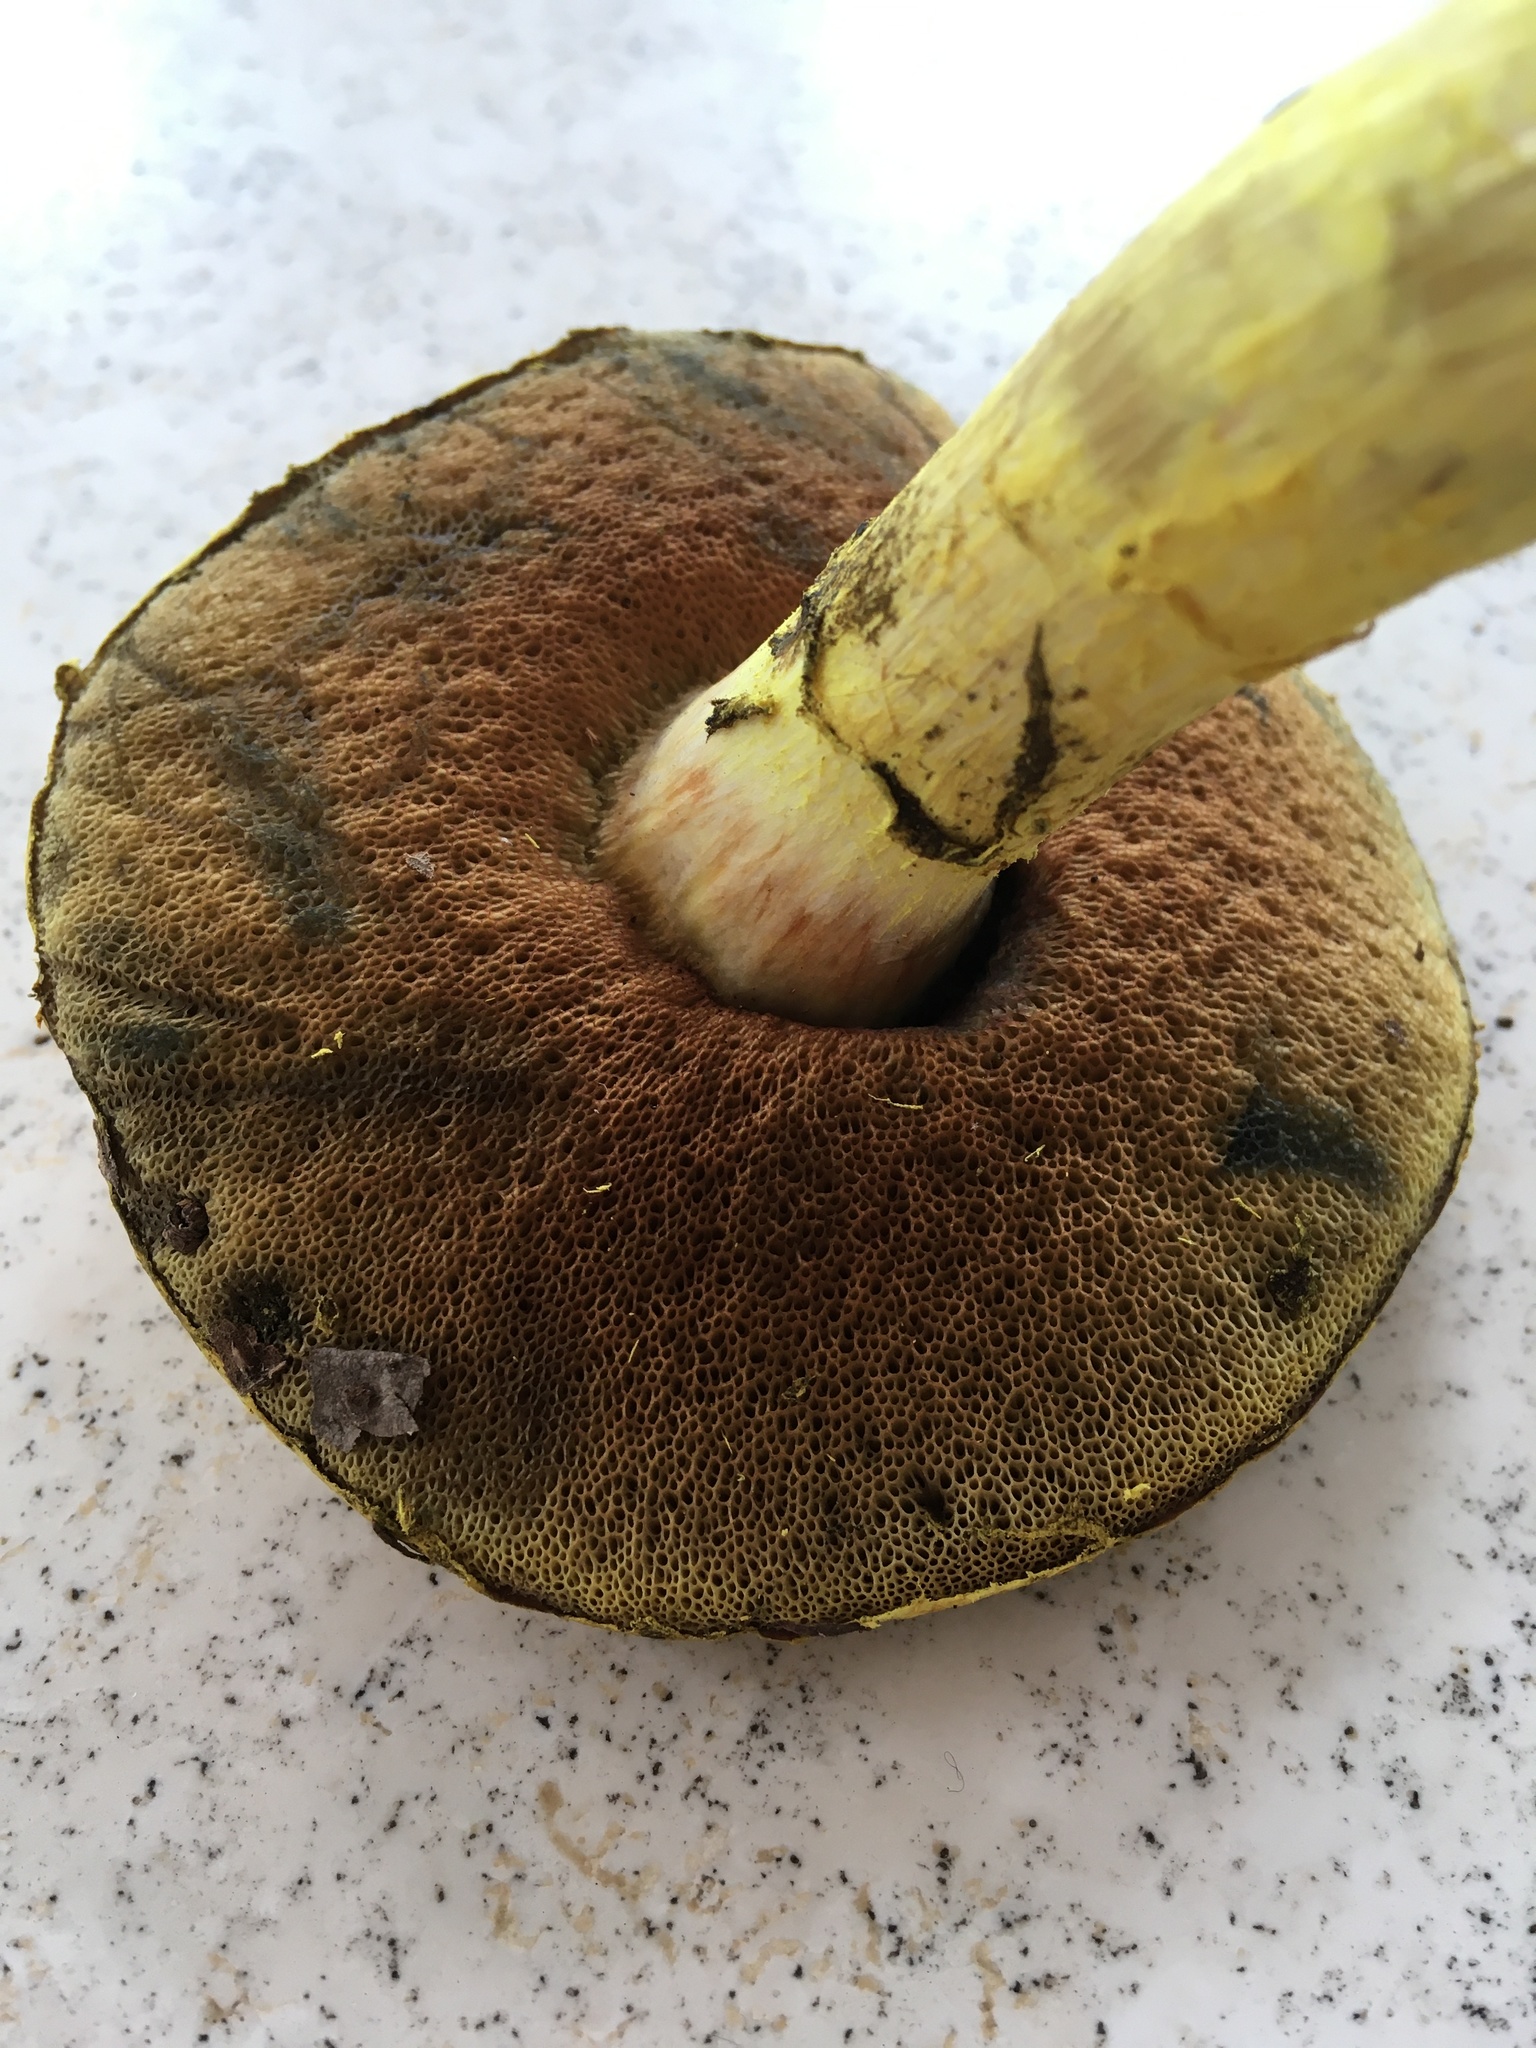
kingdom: Fungi
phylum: Basidiomycota
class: Agaricomycetes
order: Boletales
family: Boletaceae
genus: Pulveroboletus
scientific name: Pulveroboletus ravenelii
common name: Powdery sulfur bolete
